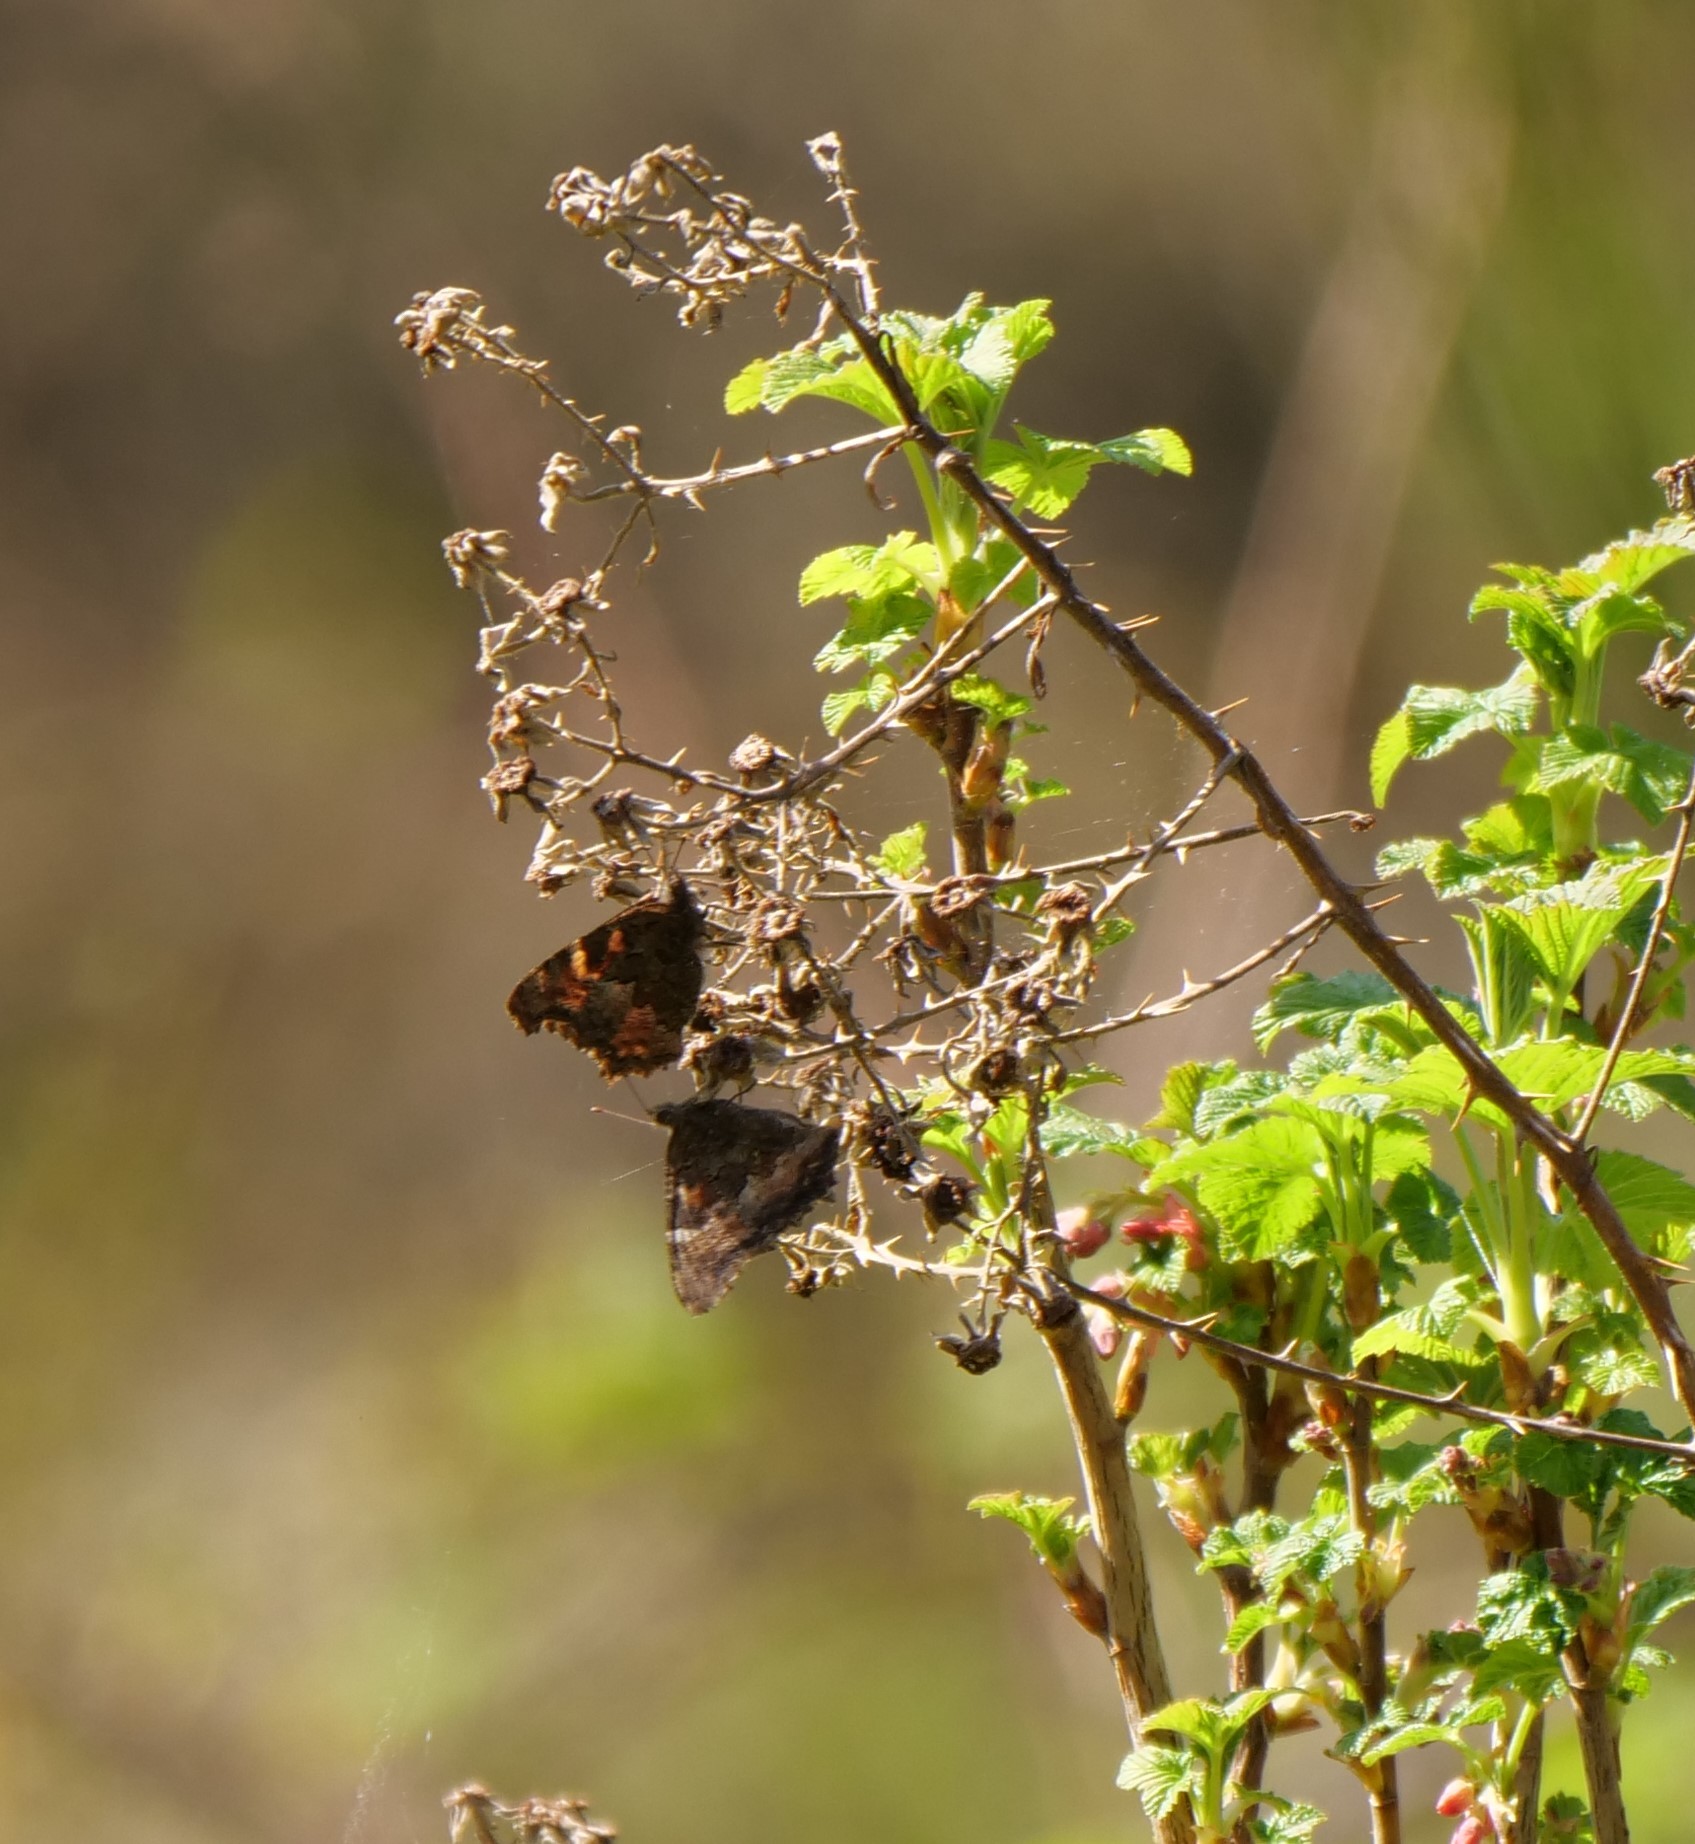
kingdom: Animalia
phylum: Arthropoda
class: Insecta
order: Lepidoptera
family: Nymphalidae
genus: Nymphalis
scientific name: Nymphalis californica
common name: California tortoiseshell
